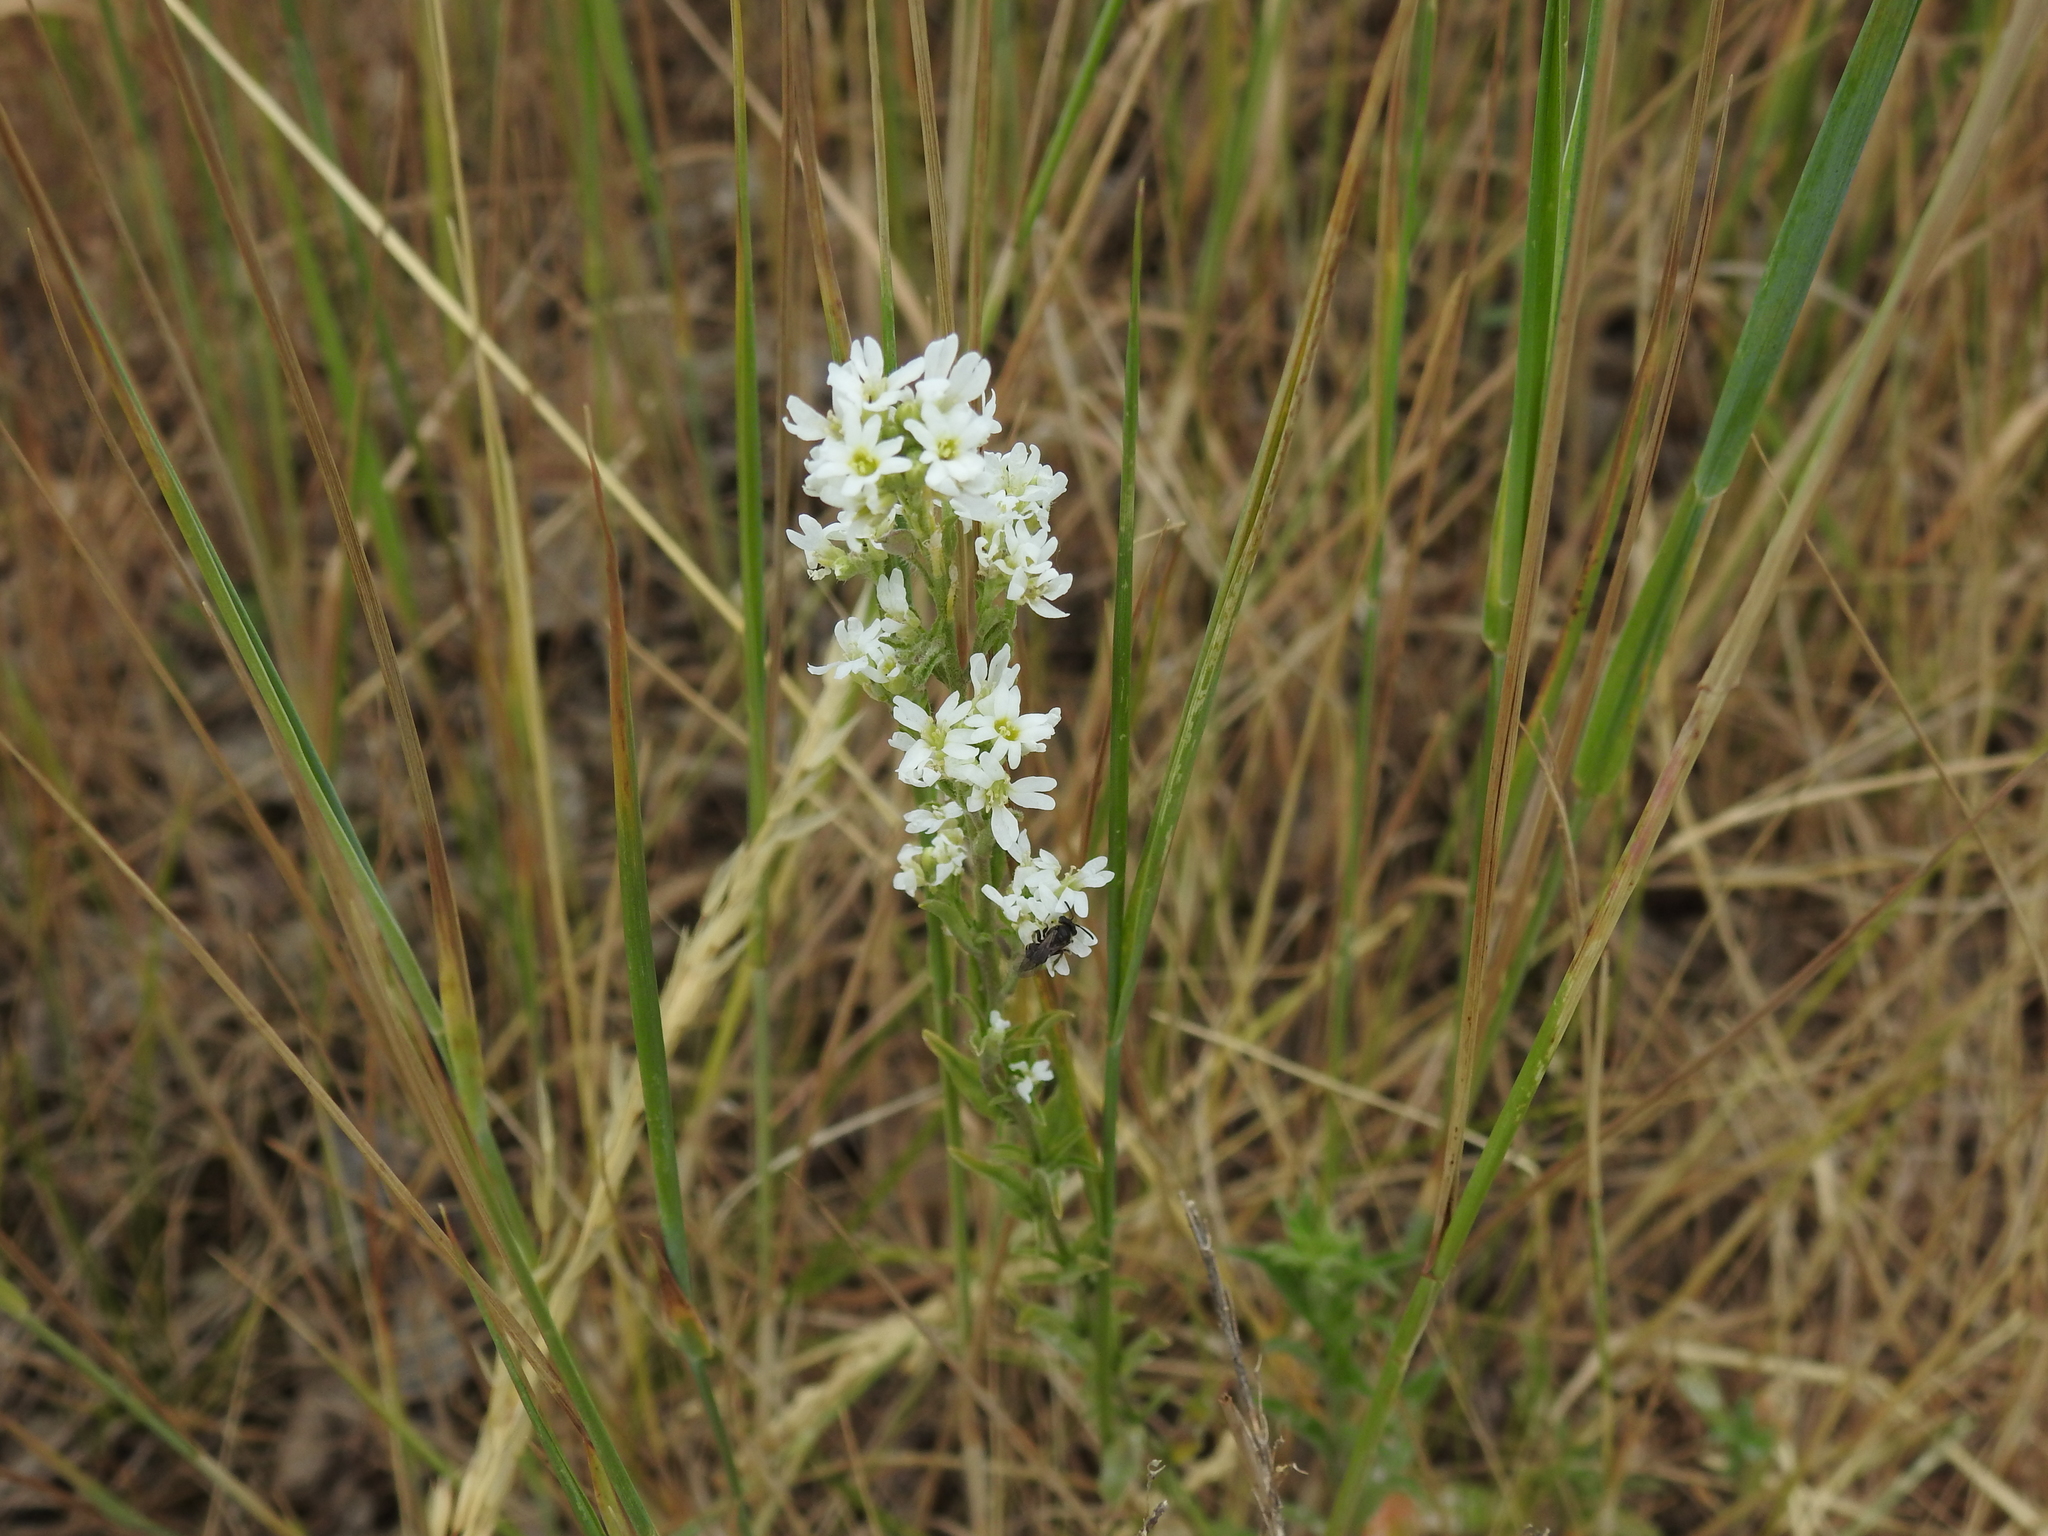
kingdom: Plantae
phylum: Tracheophyta
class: Magnoliopsida
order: Brassicales
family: Brassicaceae
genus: Berteroa
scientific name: Berteroa incana
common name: Hoary alison
